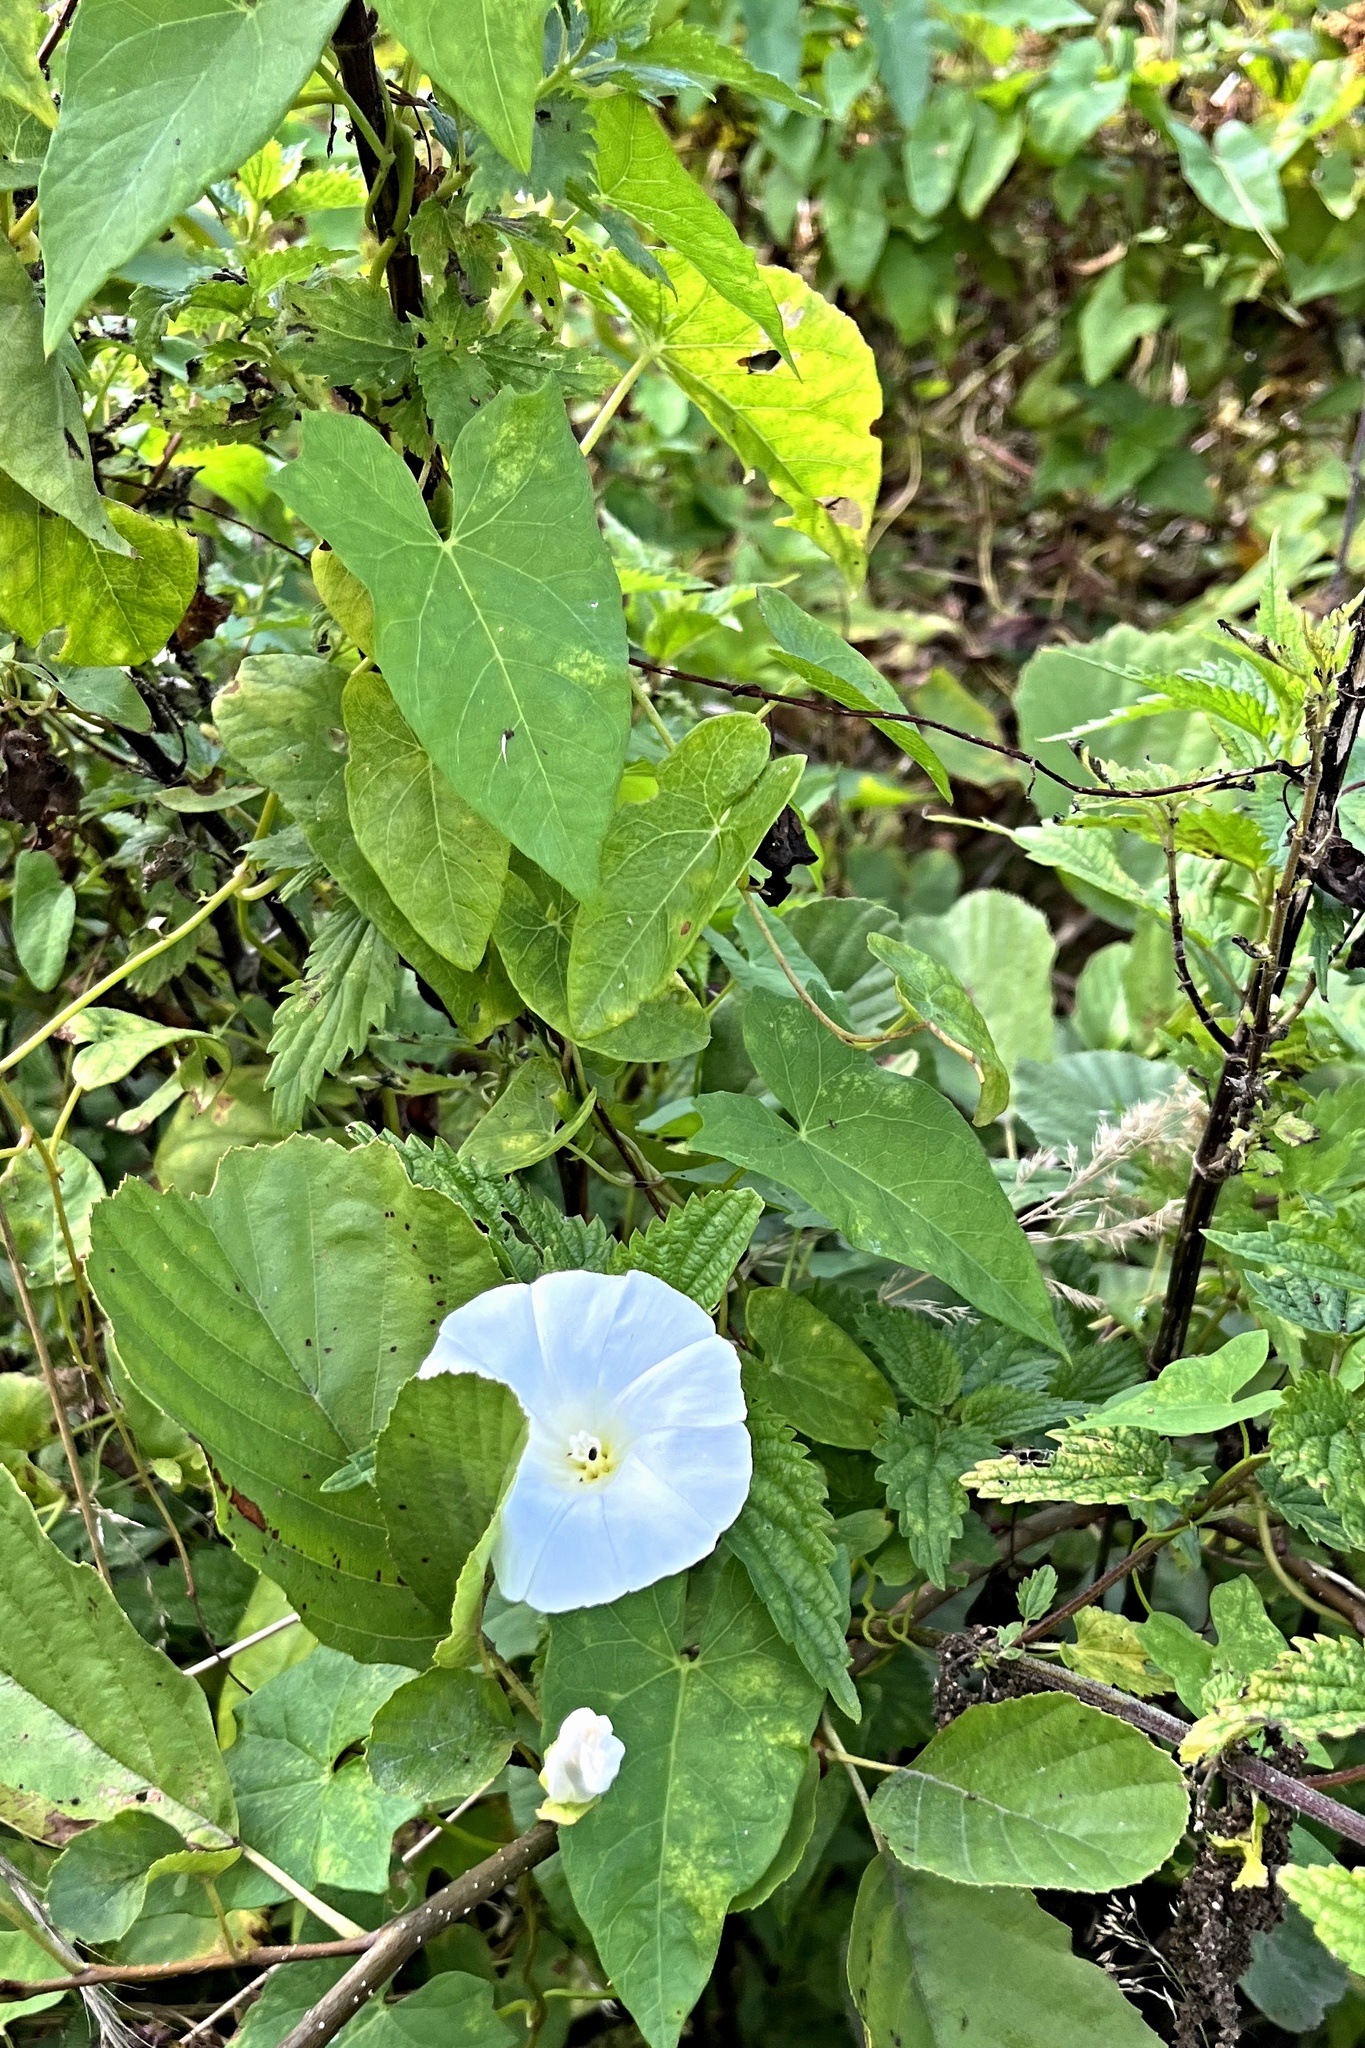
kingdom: Plantae
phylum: Tracheophyta
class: Magnoliopsida
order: Solanales
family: Convolvulaceae
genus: Calystegia
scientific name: Calystegia sepium
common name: Hedge bindweed
